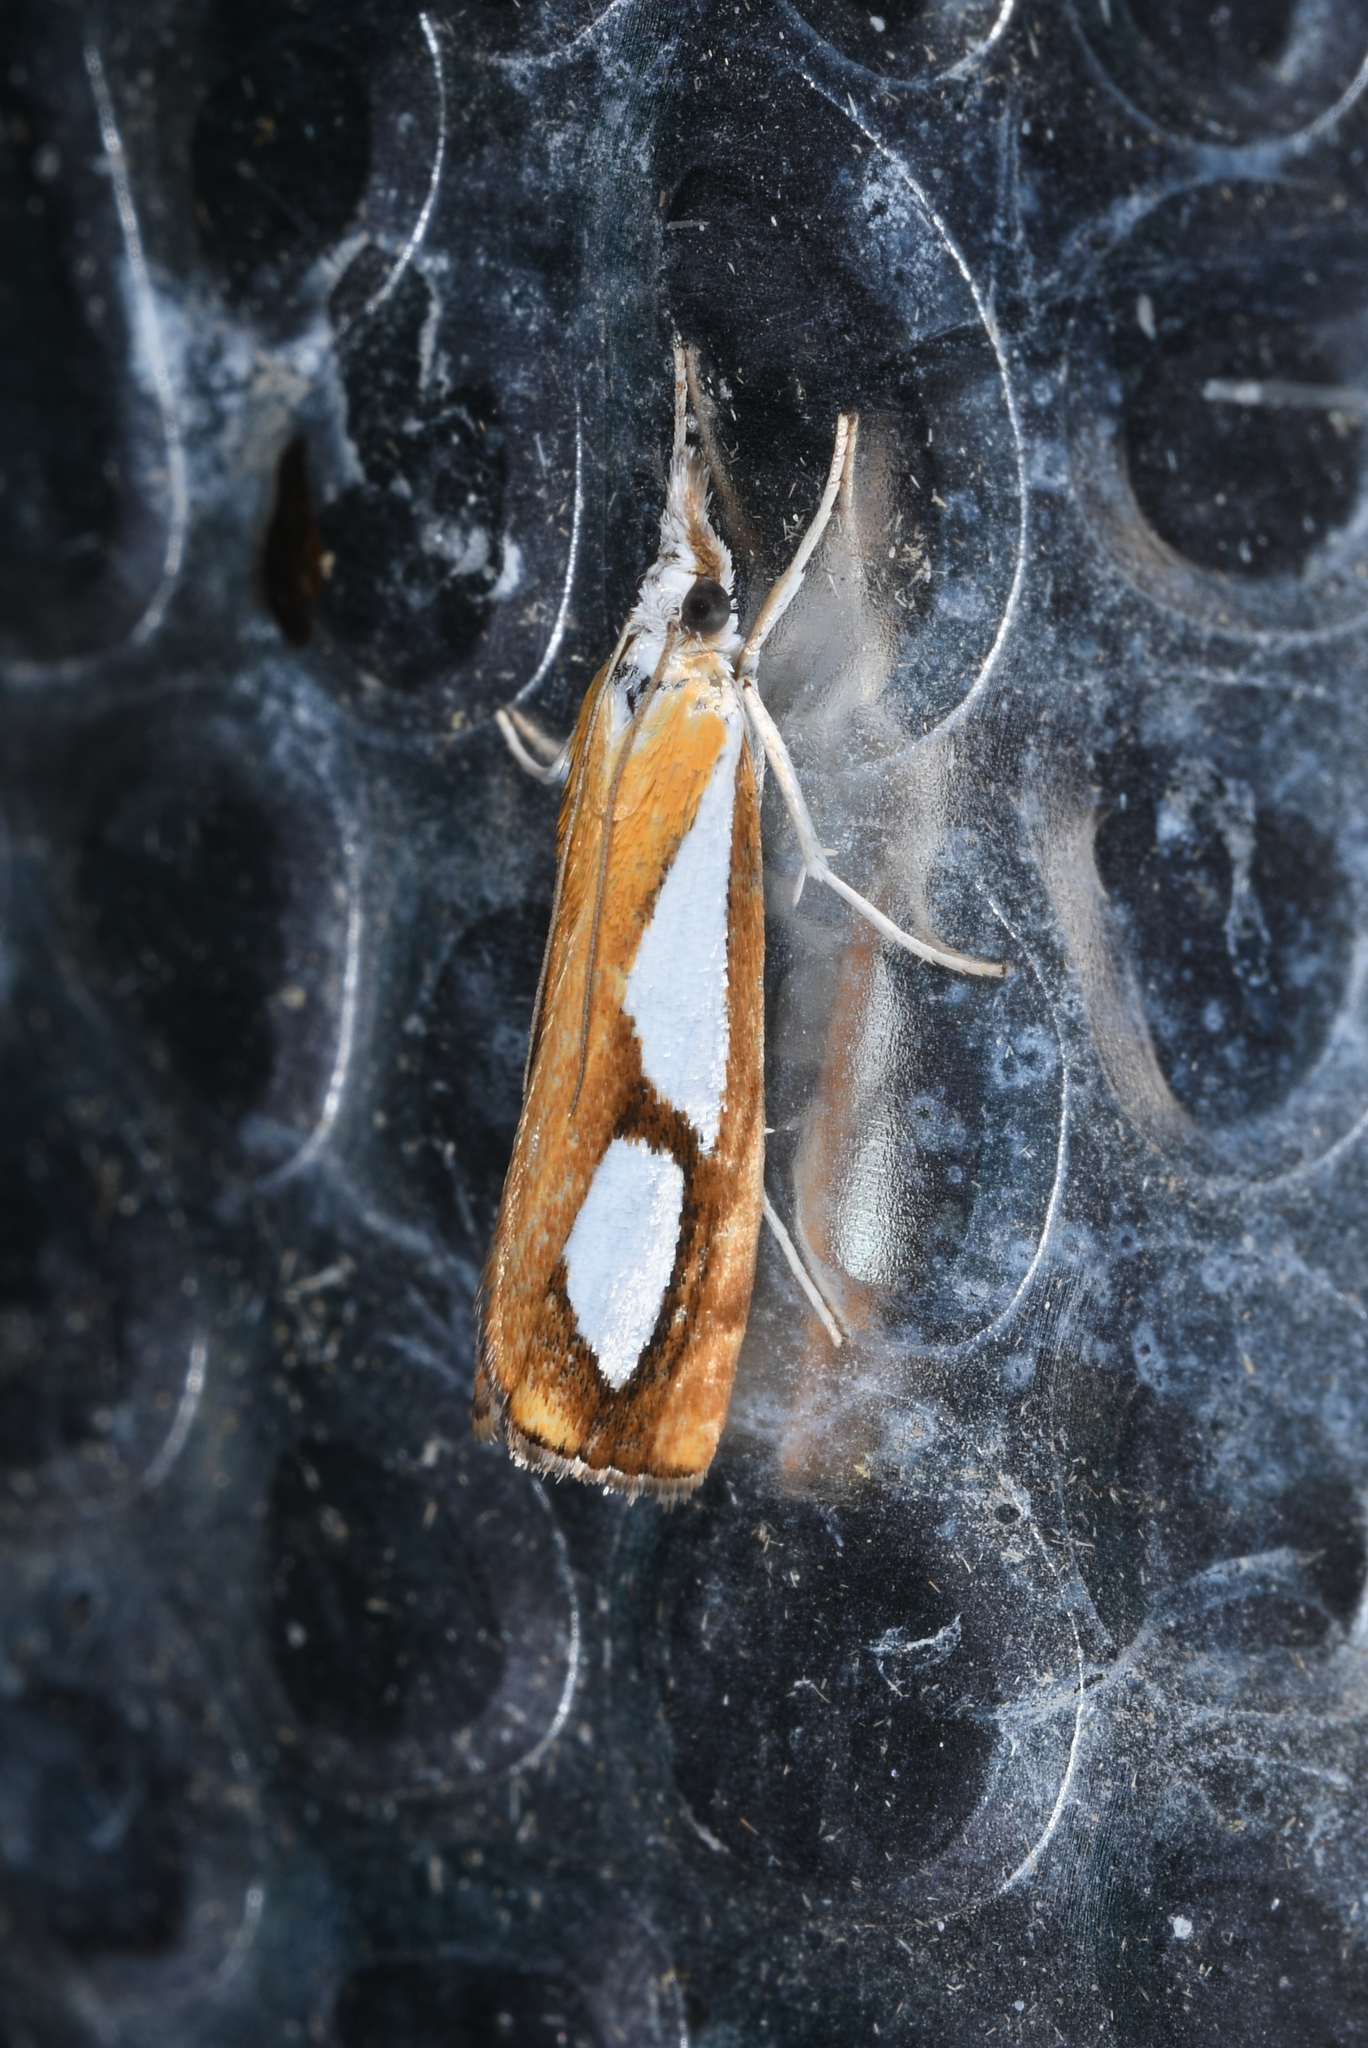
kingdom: Animalia
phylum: Arthropoda
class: Insecta
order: Lepidoptera
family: Crambidae
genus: Catoptria
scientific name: Catoptria pinella
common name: Pearl grass-veneer
